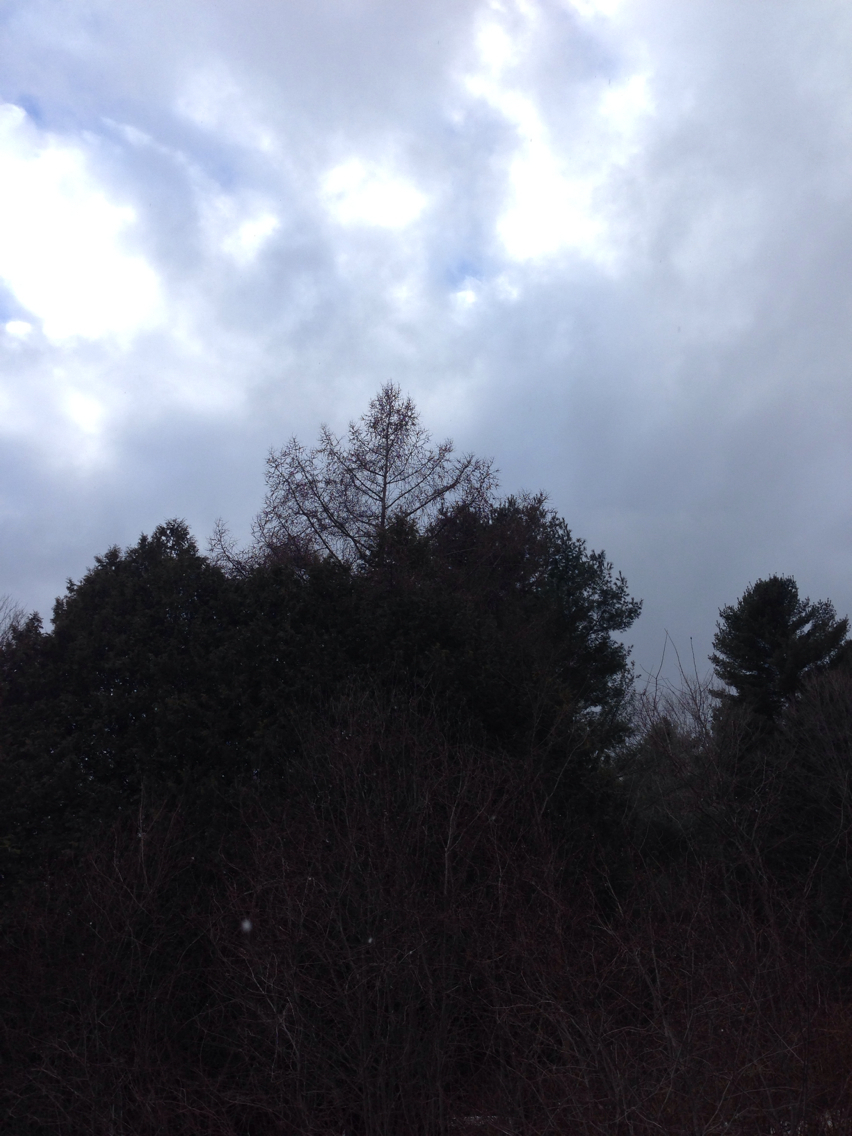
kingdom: Plantae
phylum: Tracheophyta
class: Pinopsida
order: Pinales
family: Pinaceae
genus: Larix
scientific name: Larix laricina
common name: American larch
